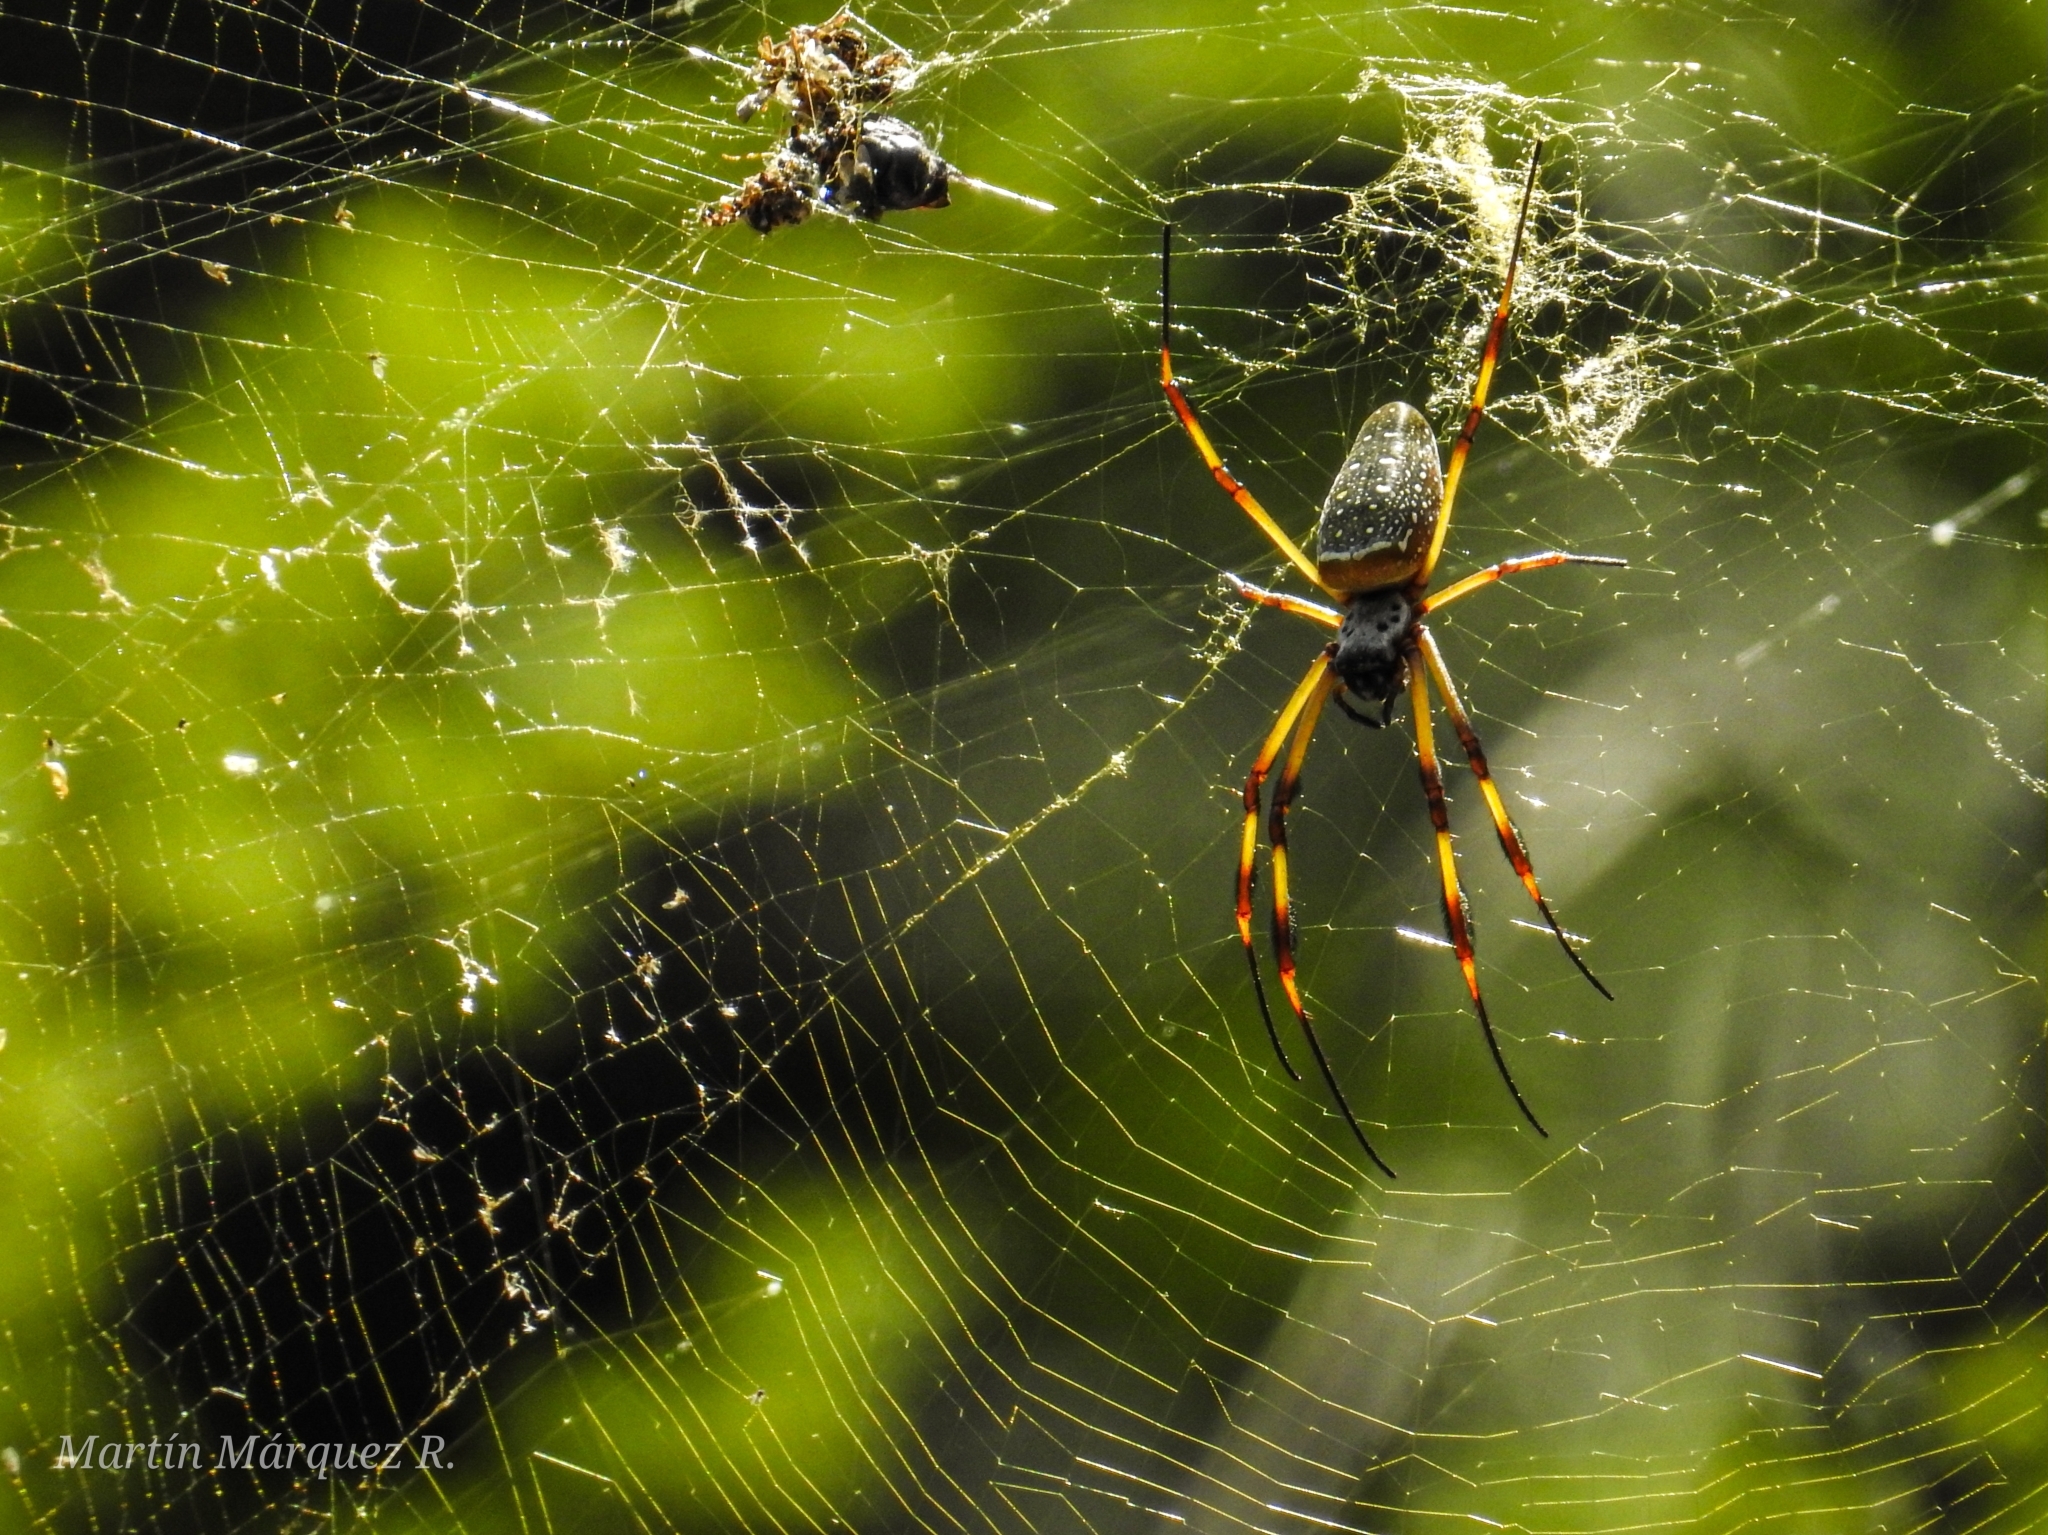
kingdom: Animalia
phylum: Arthropoda
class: Arachnida
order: Araneae
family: Araneidae
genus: Trichonephila
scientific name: Trichonephila clavipes
